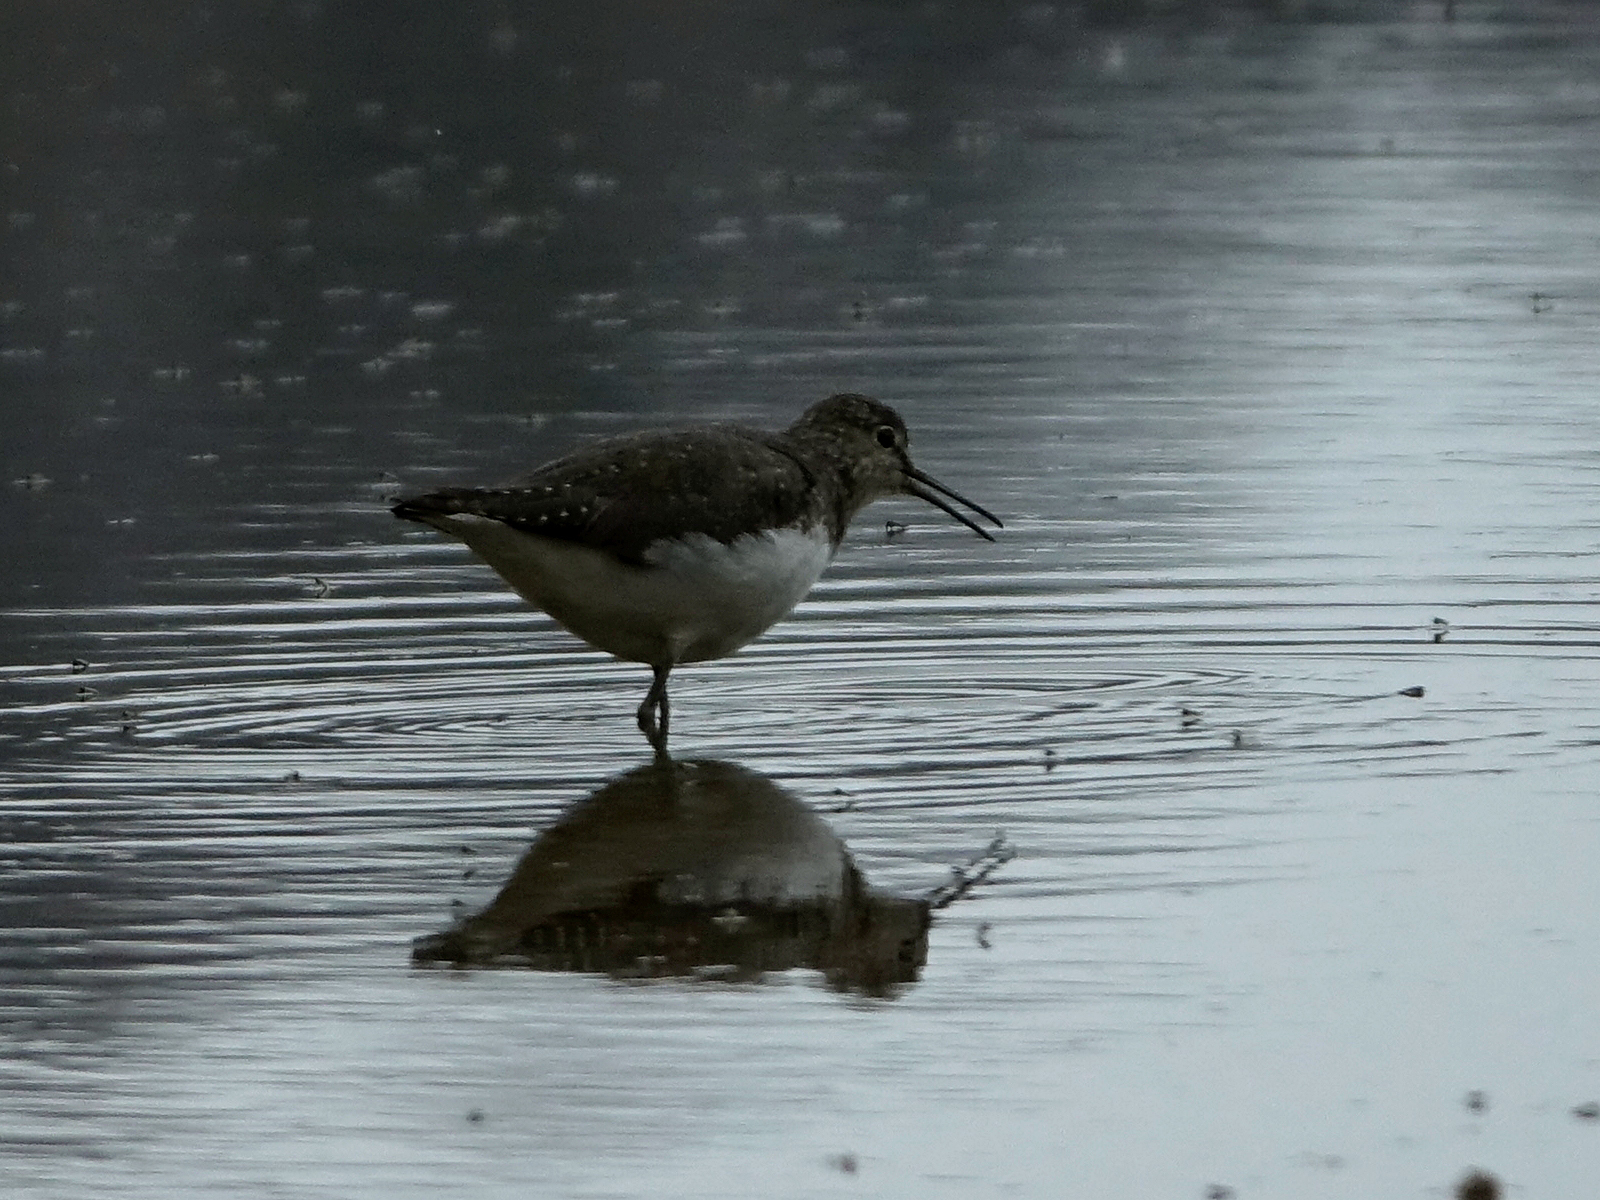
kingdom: Animalia
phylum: Chordata
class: Aves
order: Charadriiformes
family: Scolopacidae
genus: Tringa
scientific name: Tringa ochropus
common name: Green sandpiper
